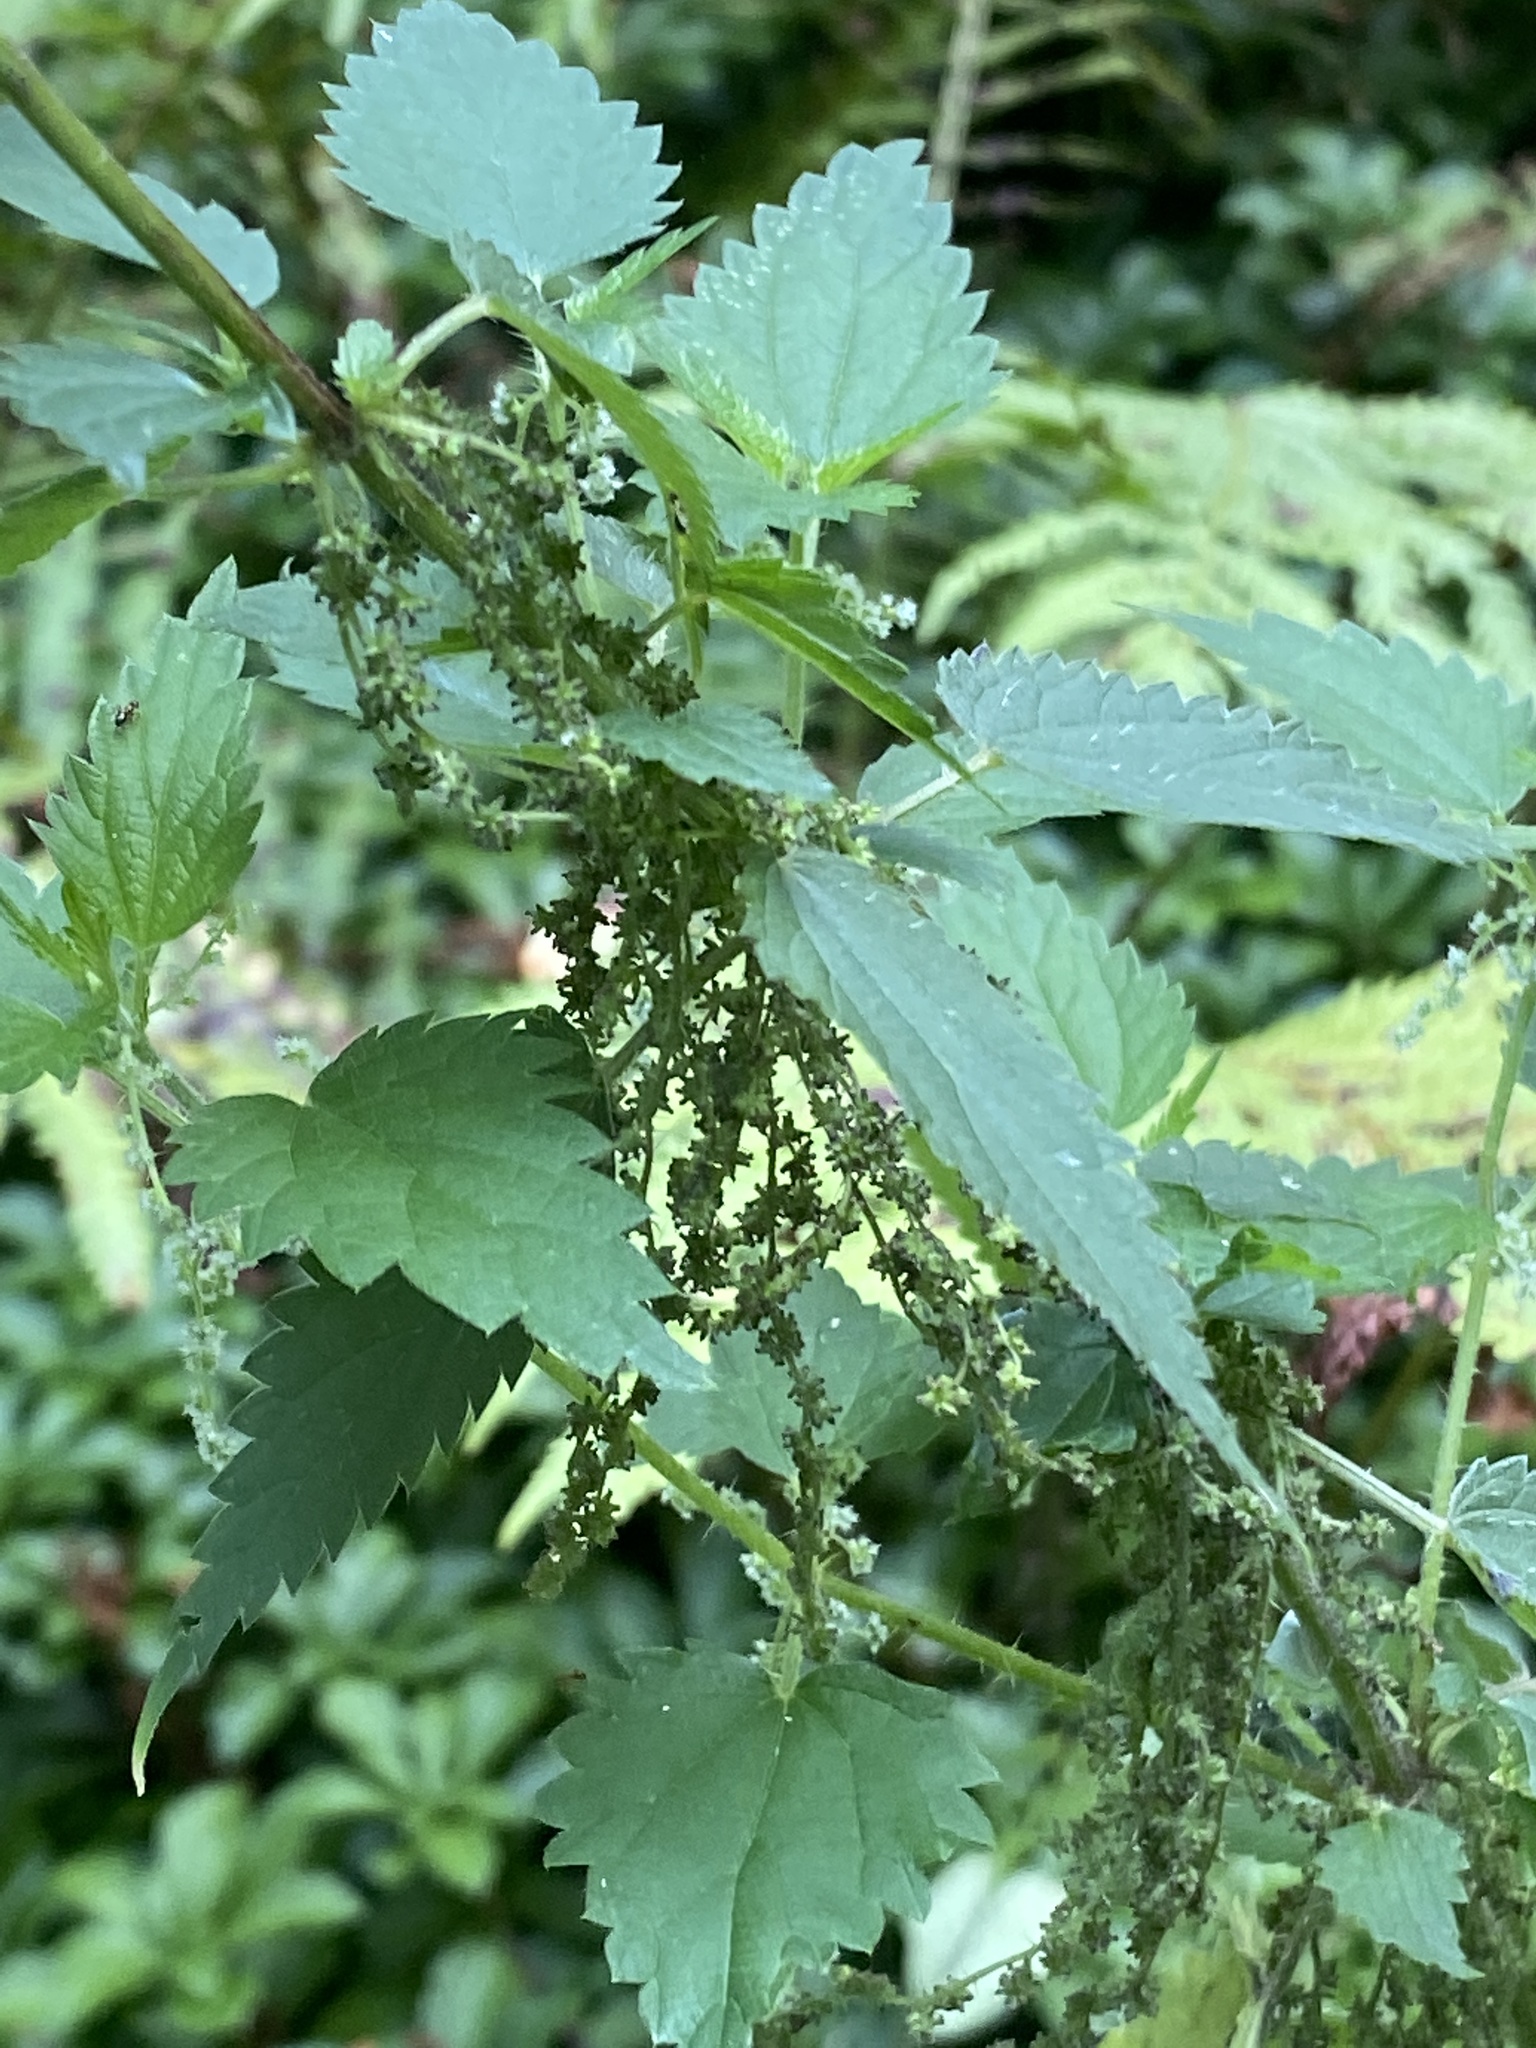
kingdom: Plantae
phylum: Tracheophyta
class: Magnoliopsida
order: Rosales
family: Urticaceae
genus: Urtica
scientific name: Urtica dioica
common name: Common nettle
